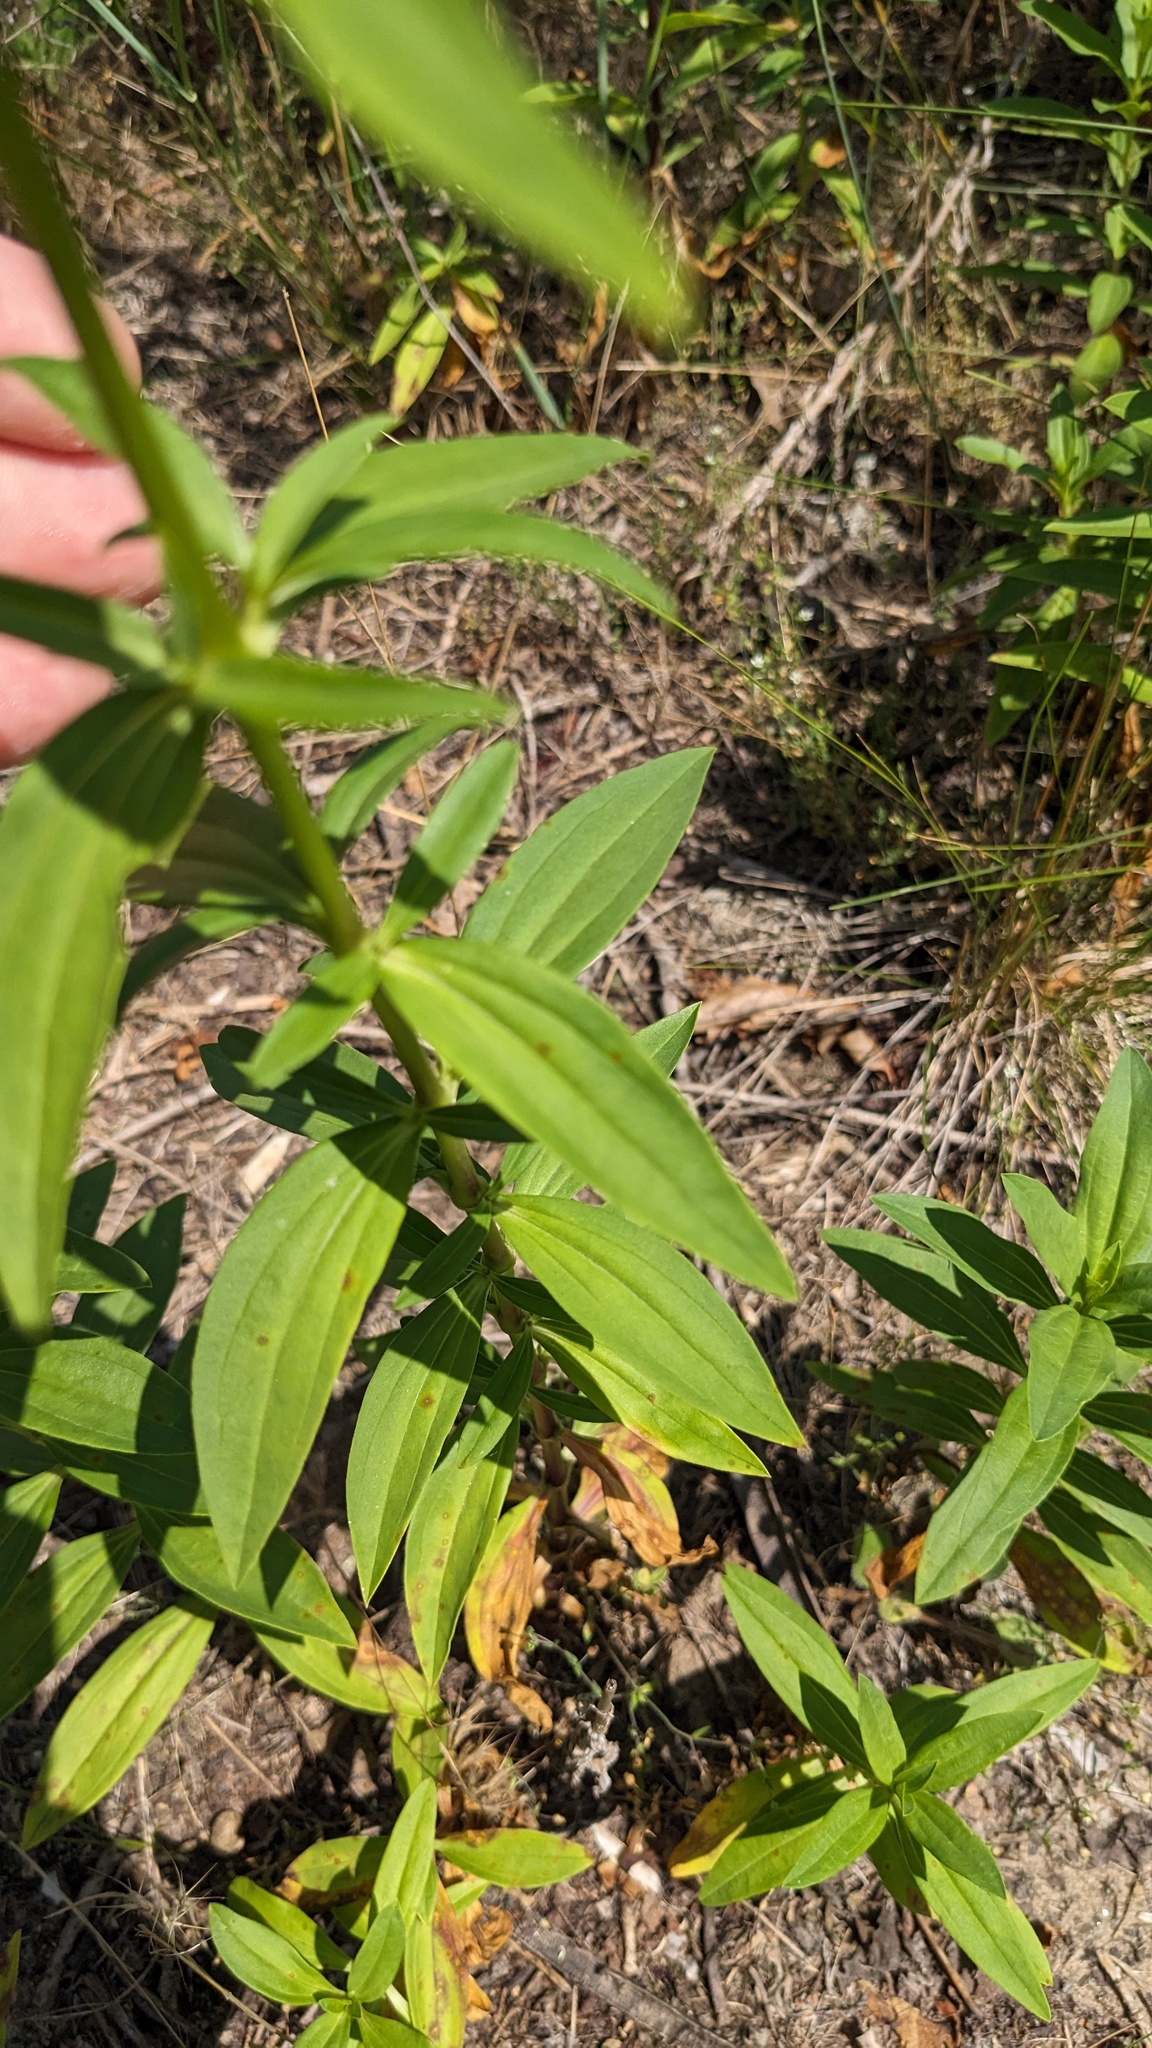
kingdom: Plantae
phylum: Tracheophyta
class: Magnoliopsida
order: Caryophyllales
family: Caryophyllaceae
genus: Saponaria
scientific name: Saponaria officinalis
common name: Soapwort
